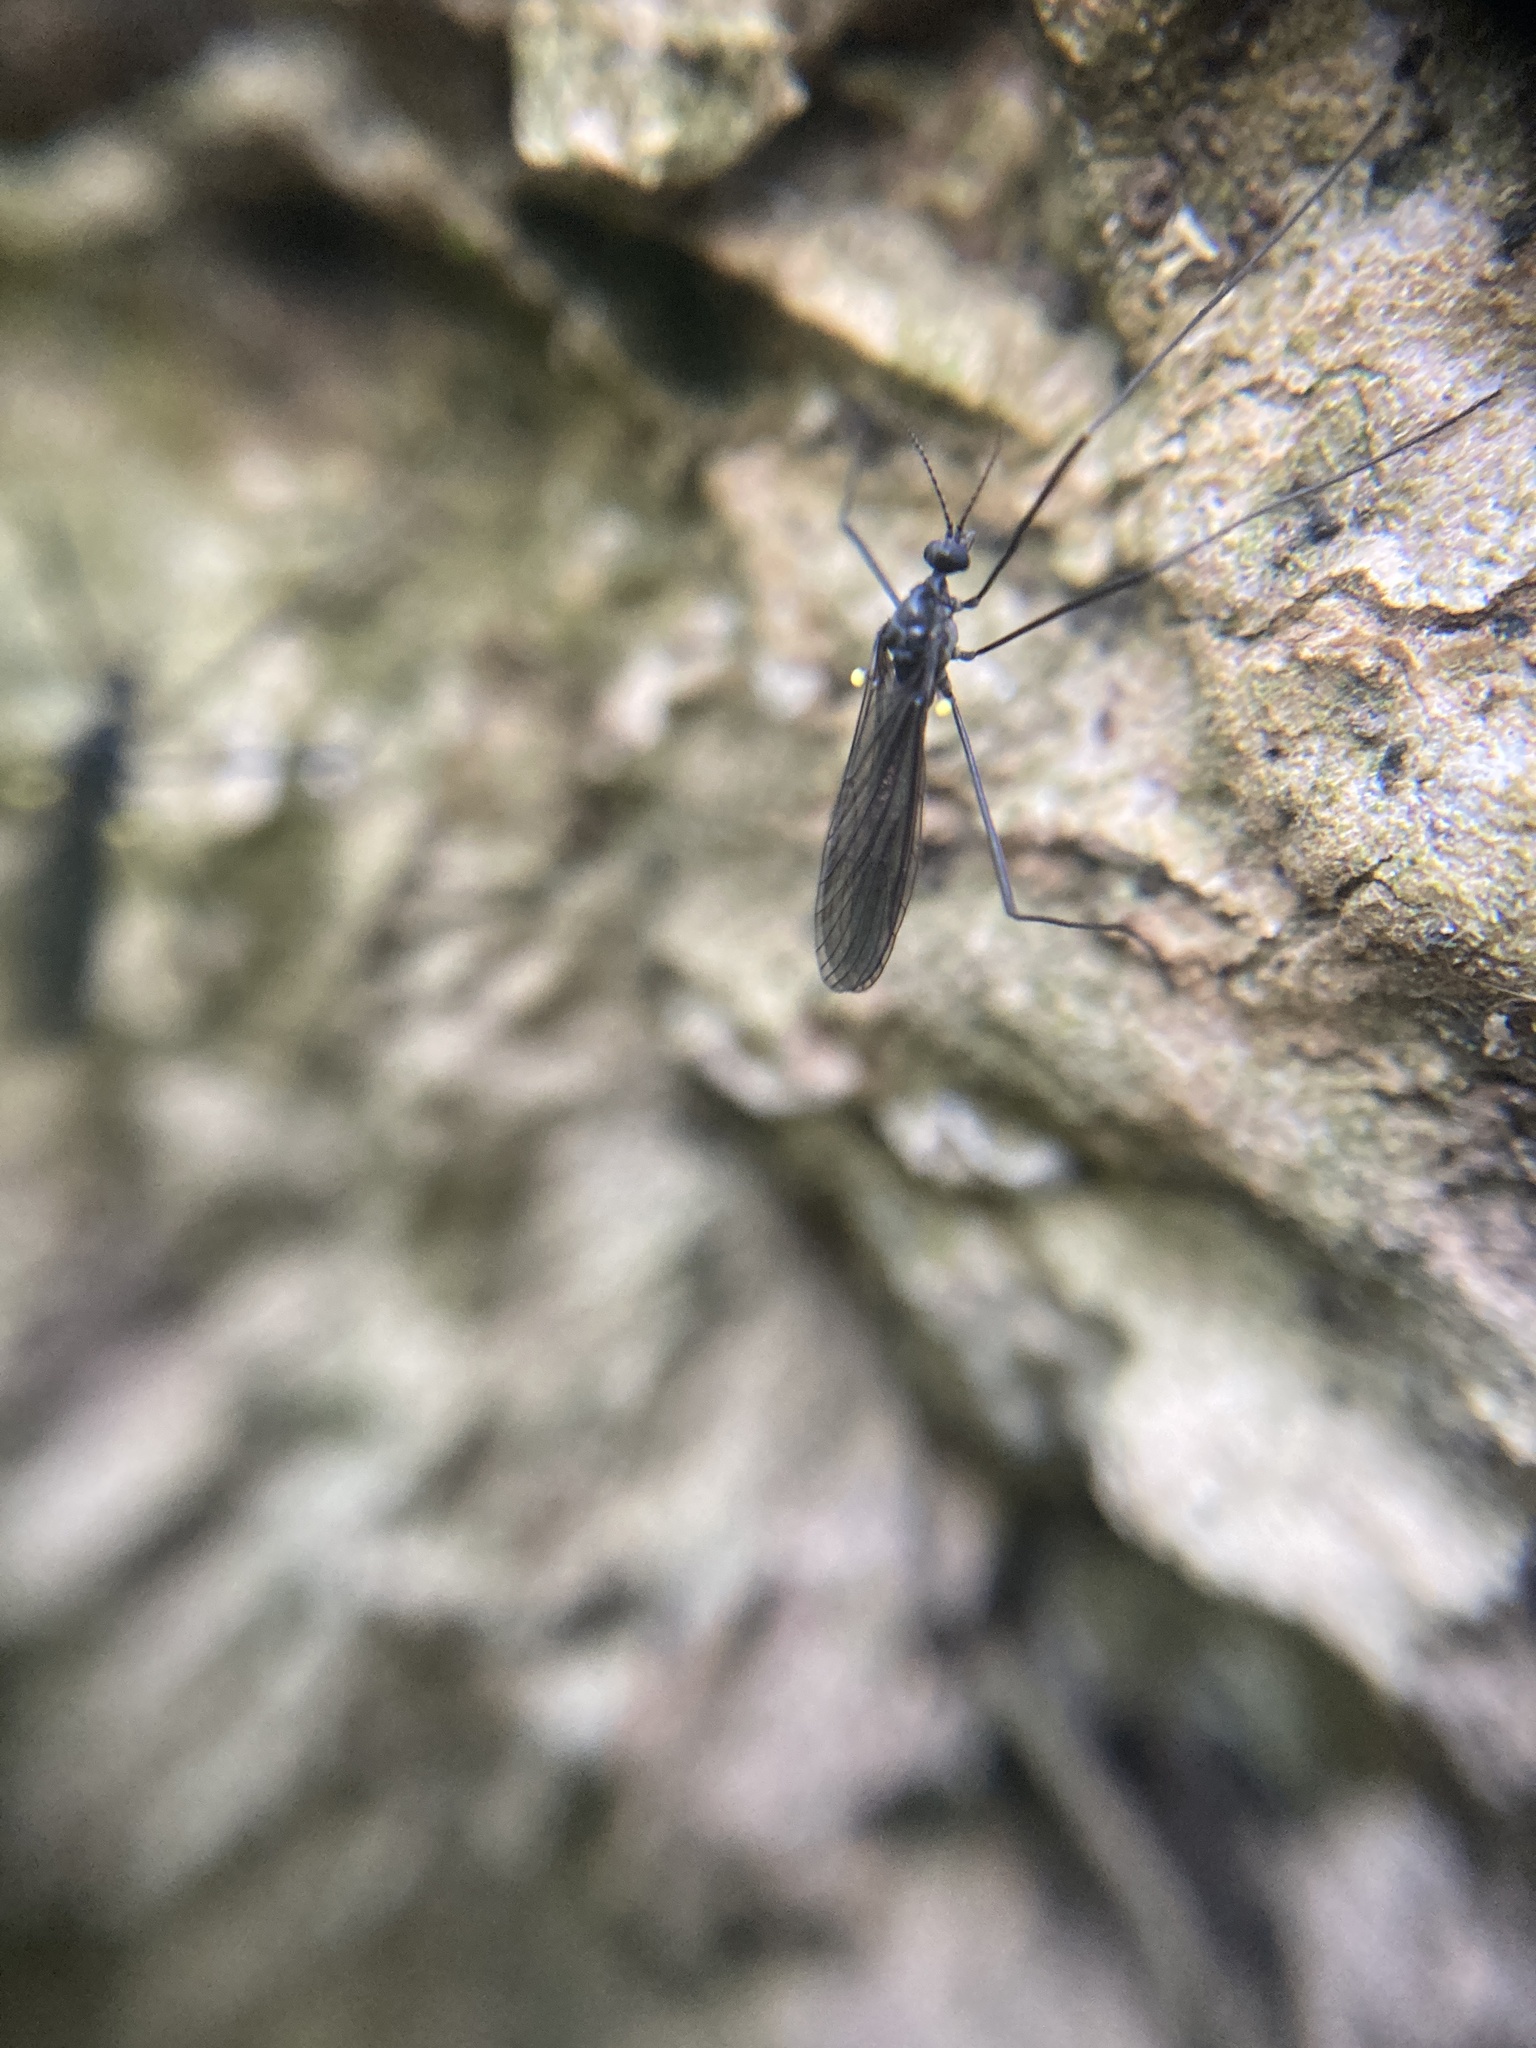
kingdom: Animalia
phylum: Arthropoda
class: Insecta
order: Diptera
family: Limoniidae
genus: Gnophomyia
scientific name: Gnophomyia tristissima
